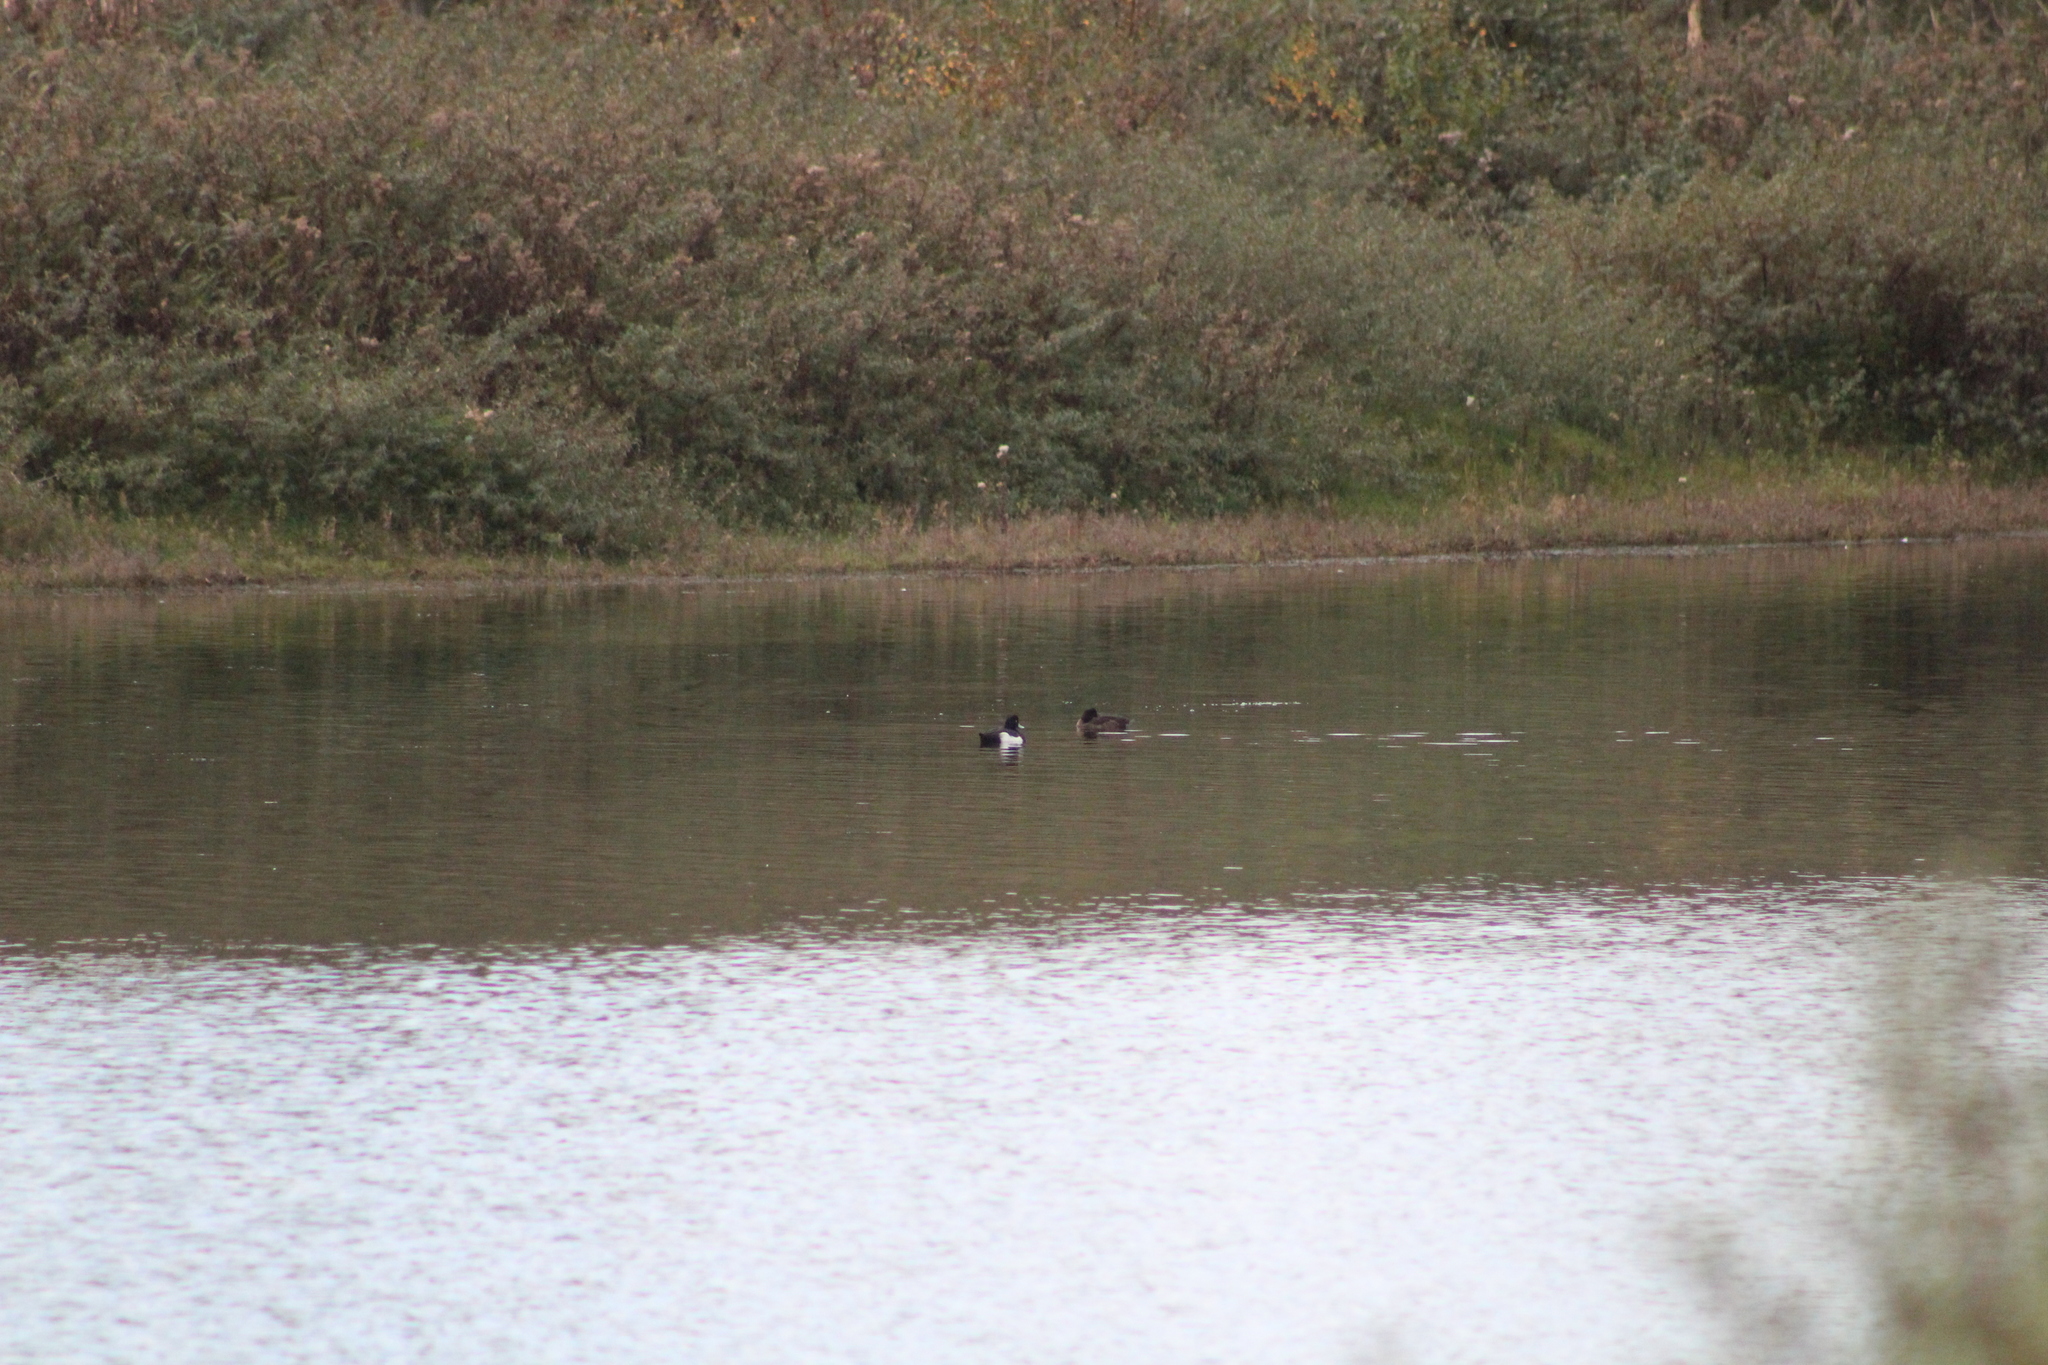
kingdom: Animalia
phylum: Chordata
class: Aves
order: Anseriformes
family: Anatidae
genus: Aythya
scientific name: Aythya fuligula
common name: Tufted duck
